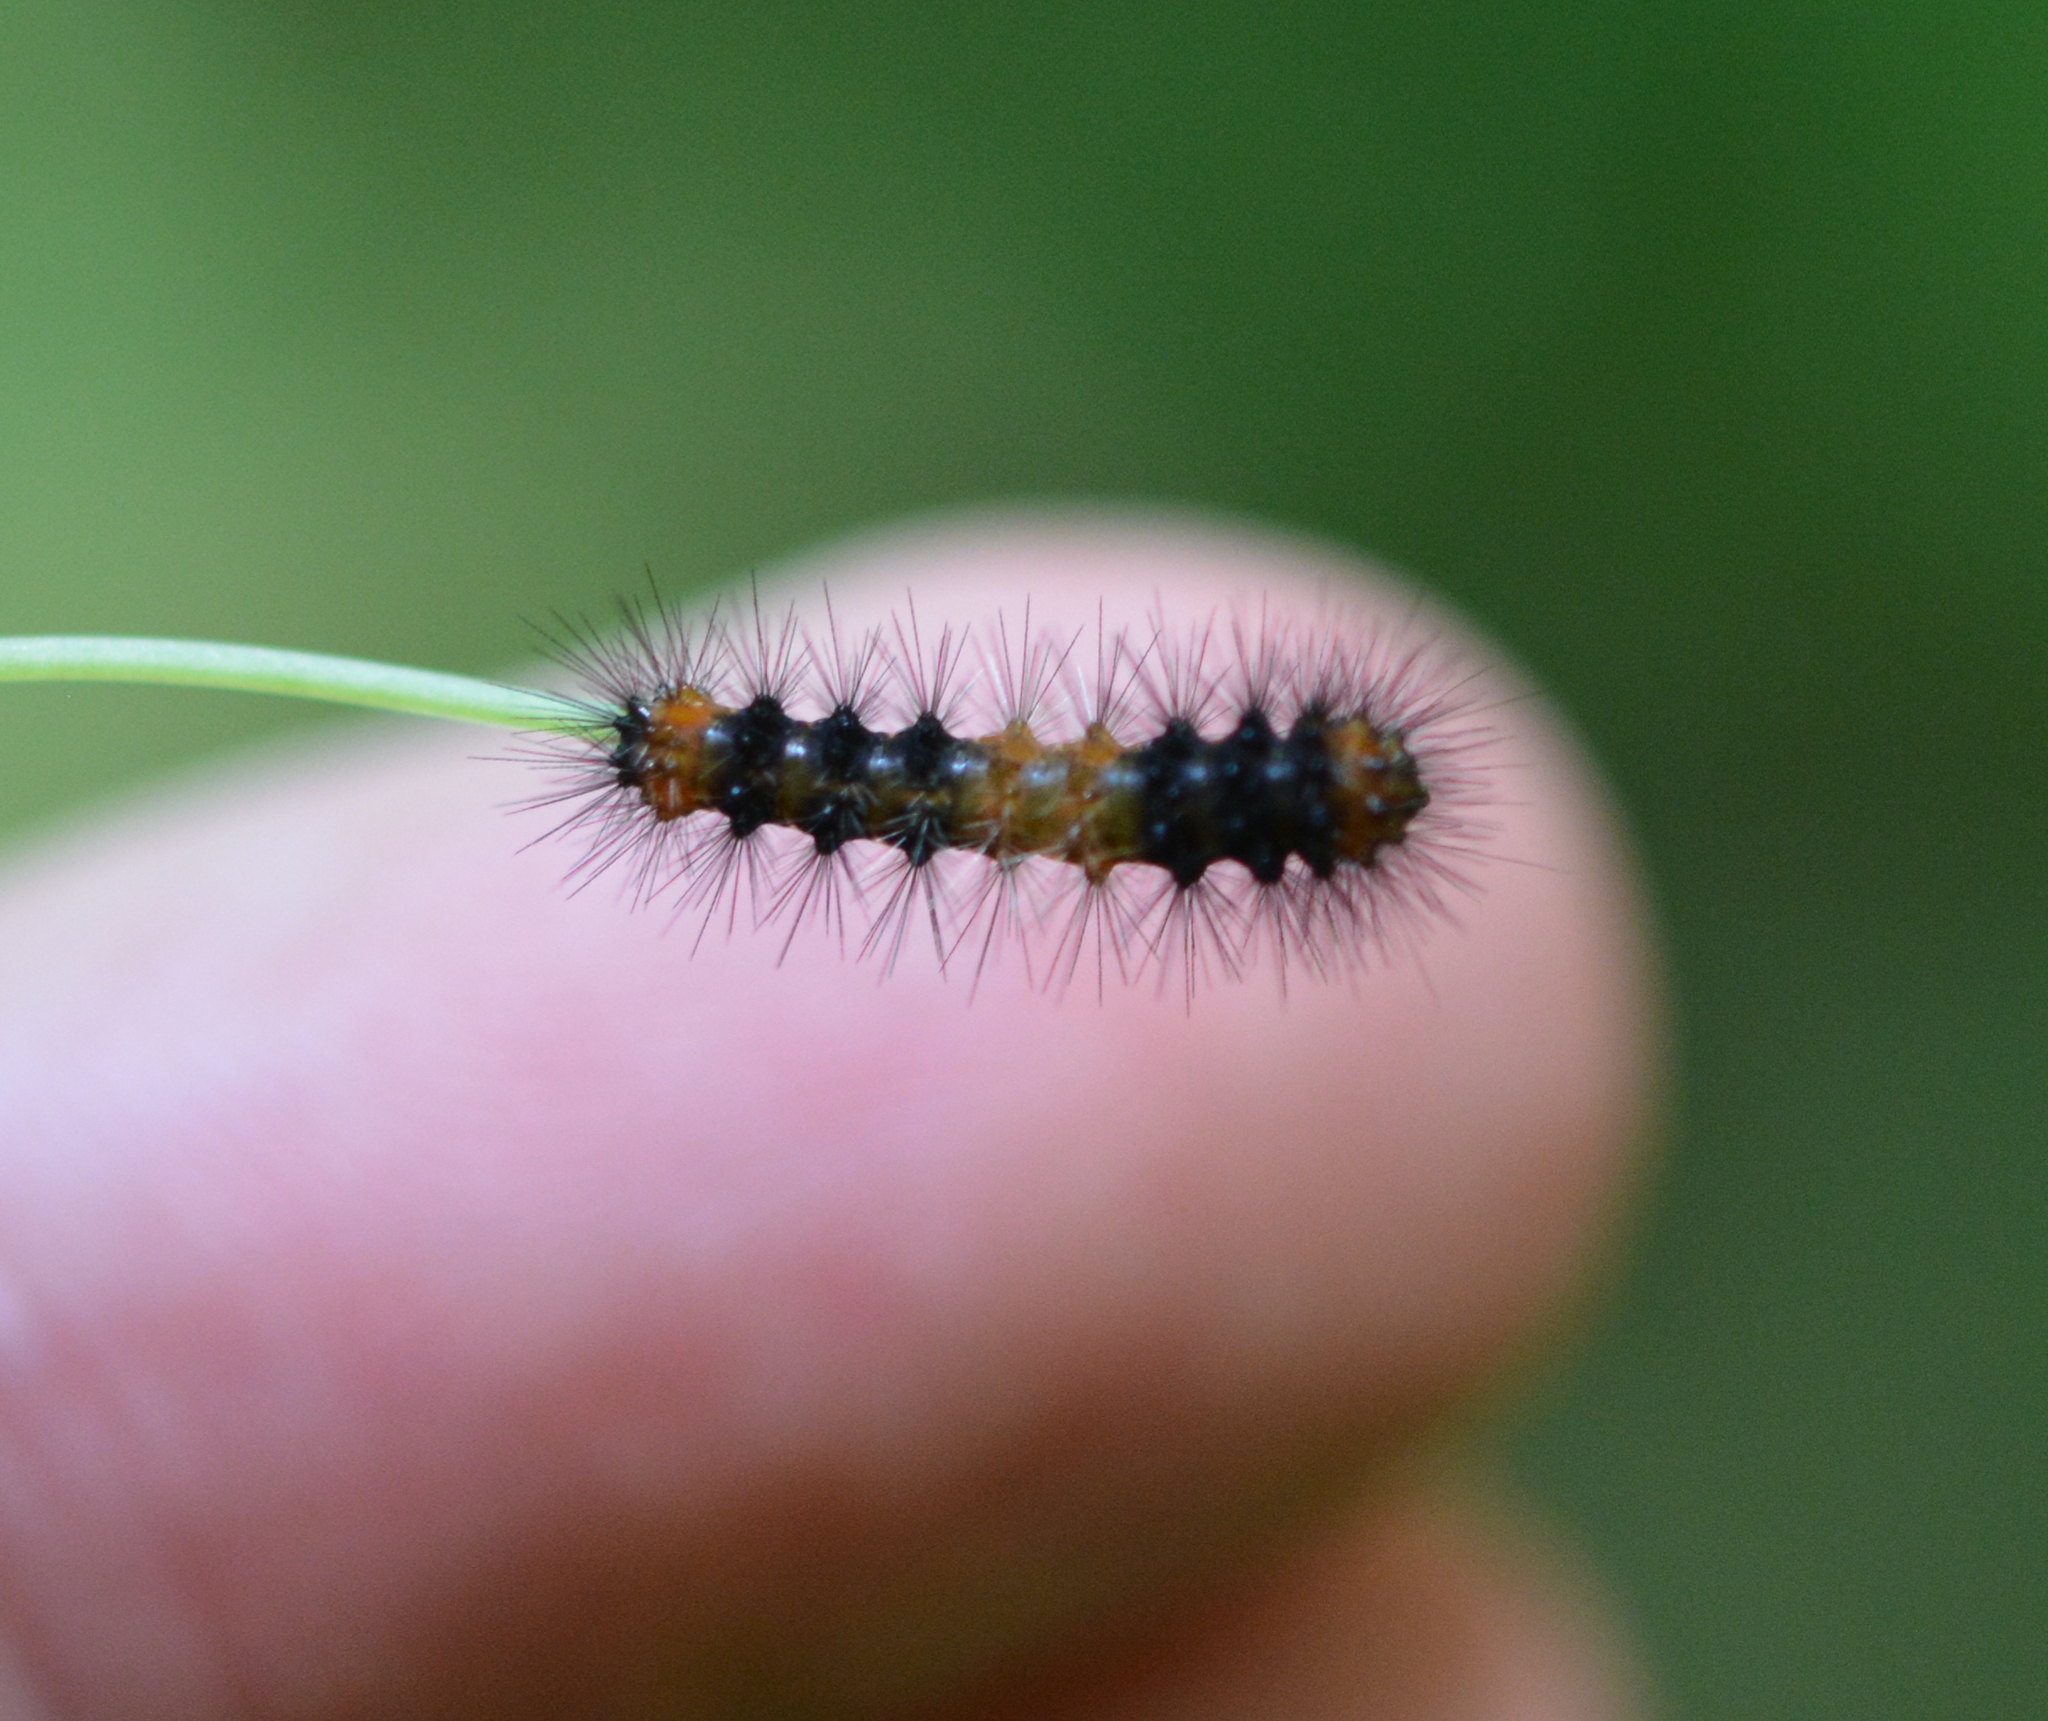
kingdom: Animalia
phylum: Arthropoda
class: Insecta
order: Lepidoptera
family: Erebidae
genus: Hypercompe
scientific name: Hypercompe scribonia
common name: Giant leopard moth
